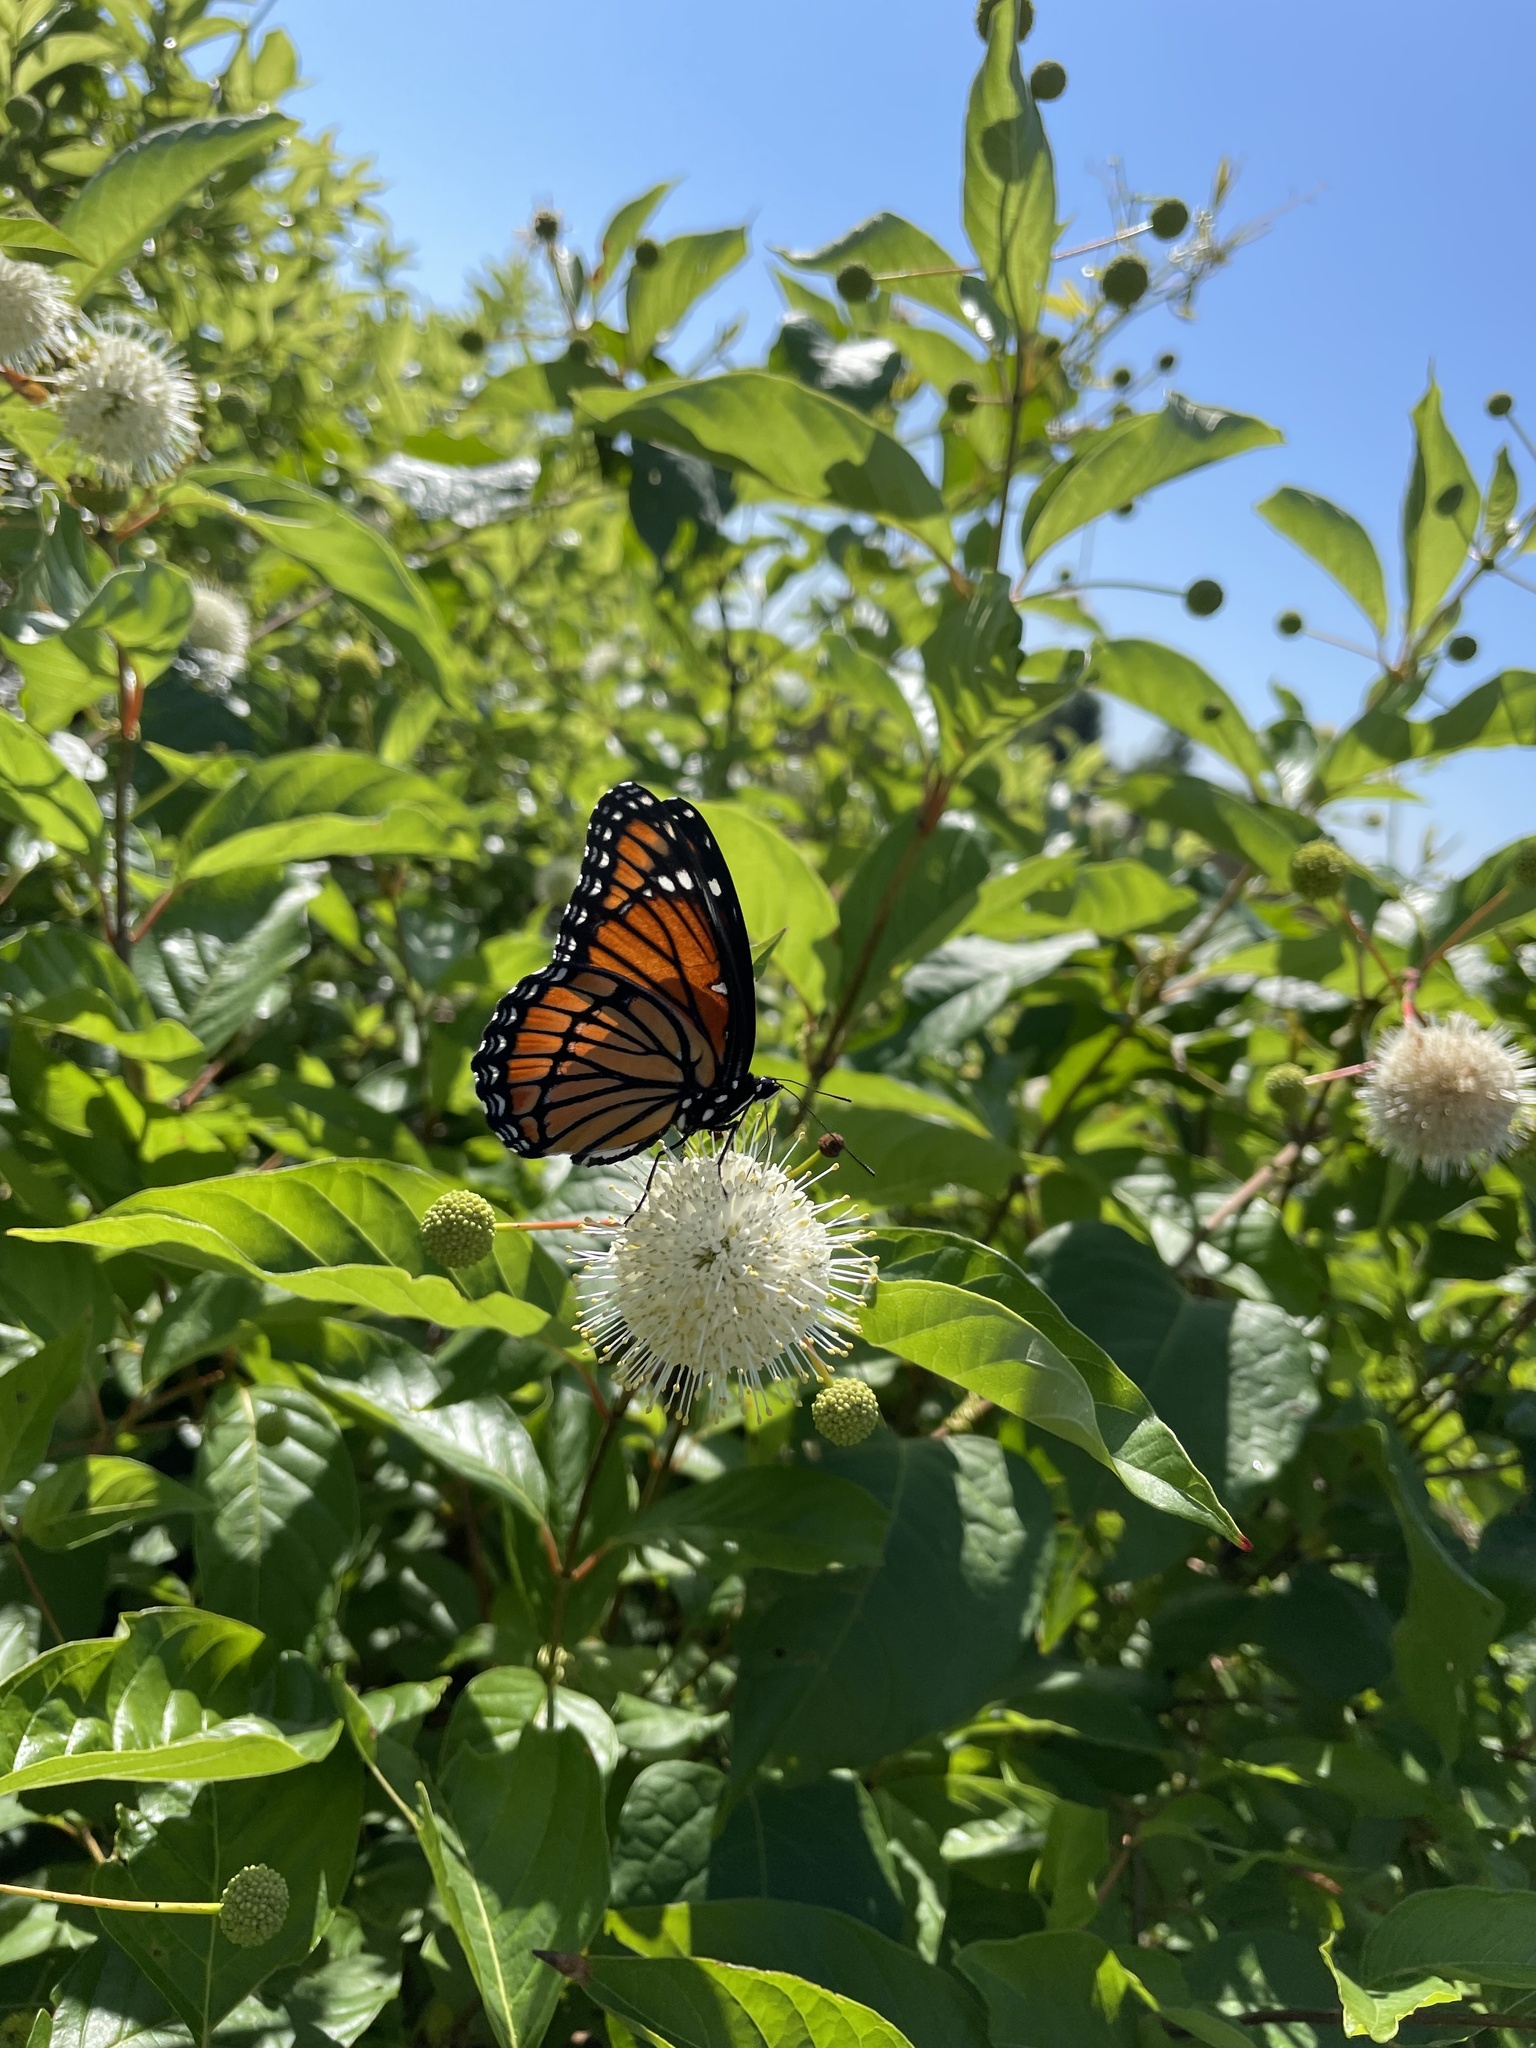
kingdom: Animalia
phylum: Arthropoda
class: Insecta
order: Lepidoptera
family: Nymphalidae
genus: Limenitis
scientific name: Limenitis archippus
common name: Viceroy
